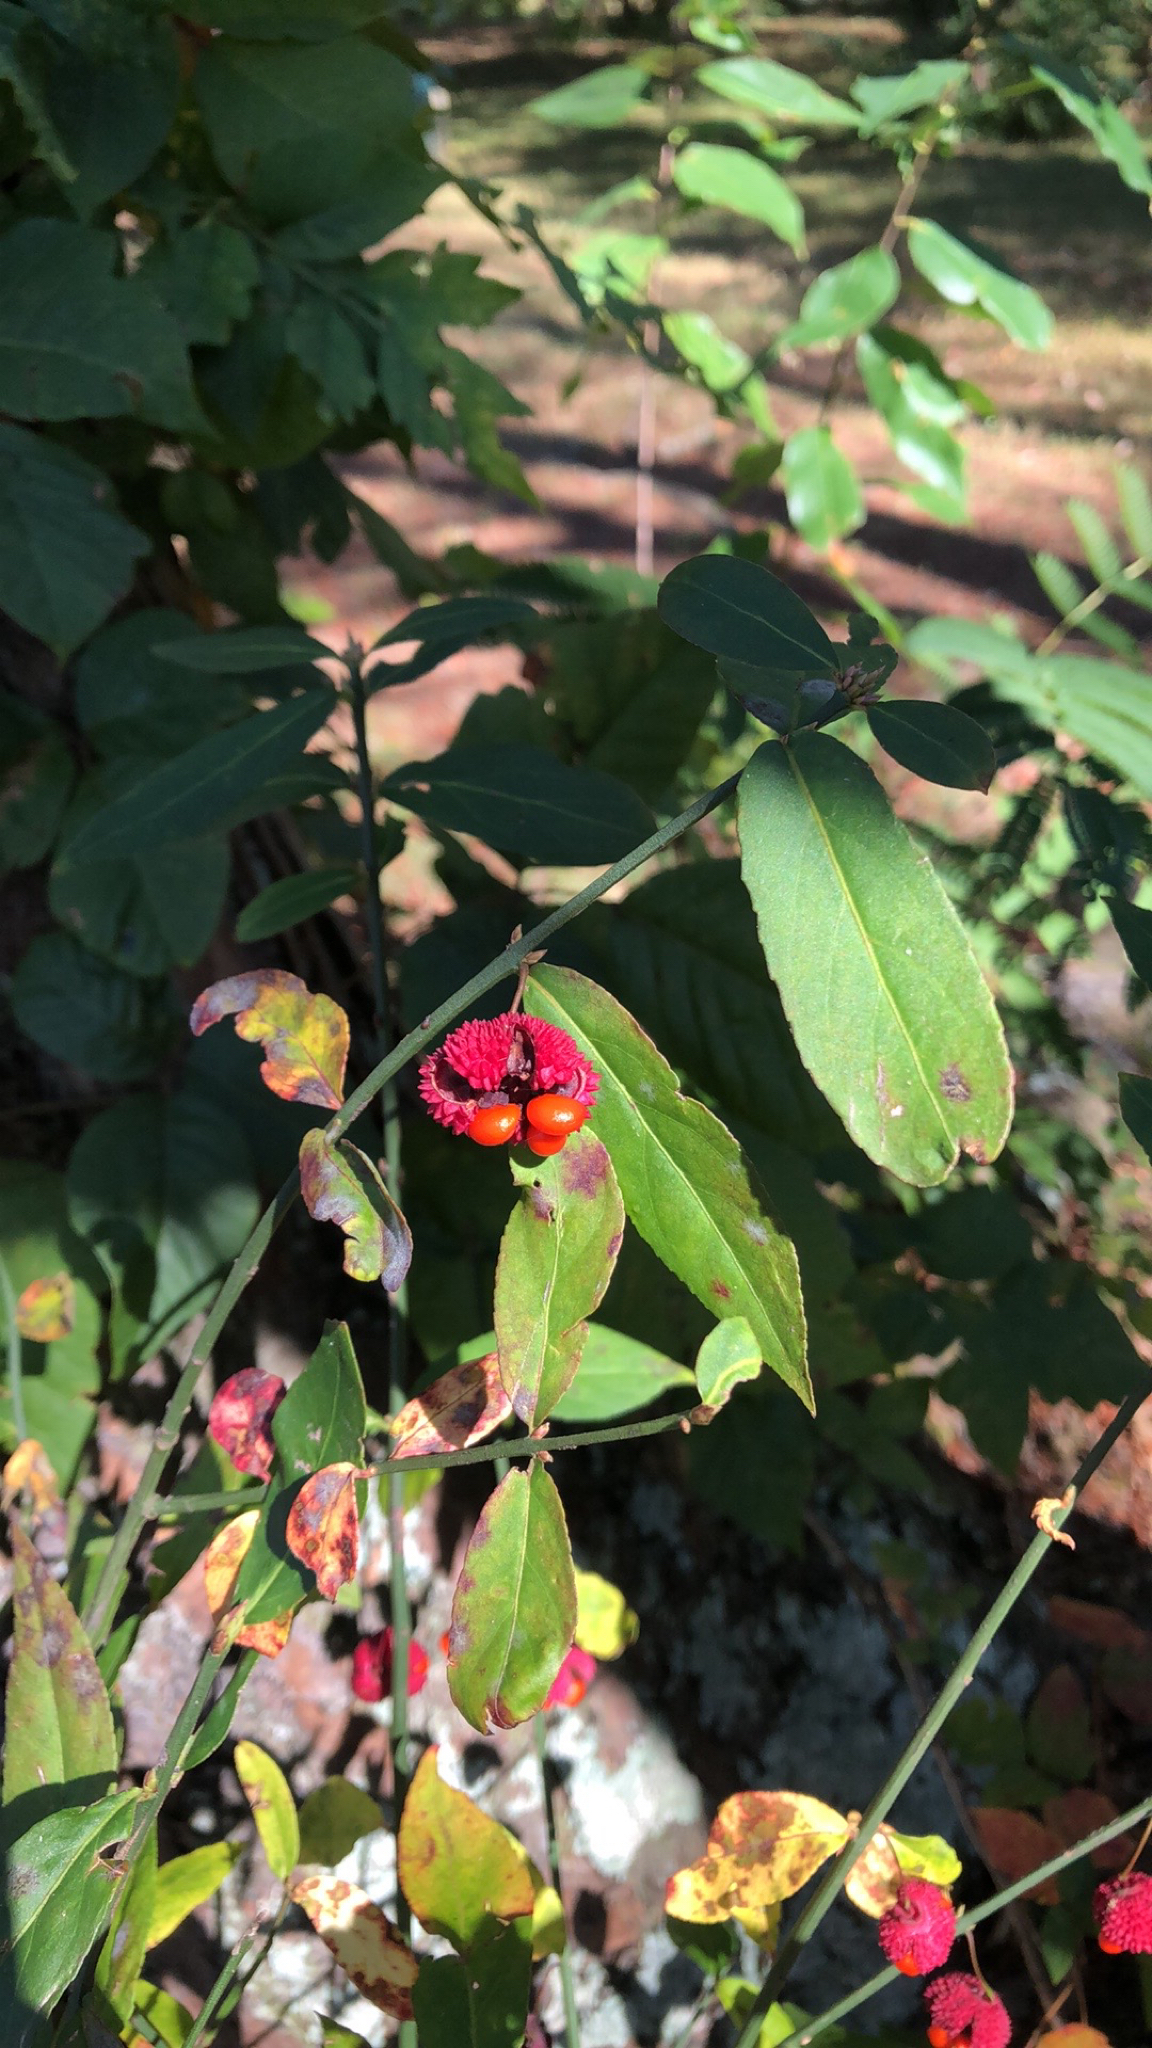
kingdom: Plantae
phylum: Tracheophyta
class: Magnoliopsida
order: Celastrales
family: Celastraceae
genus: Euonymus
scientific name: Euonymus americanus
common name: Bursting-heart
